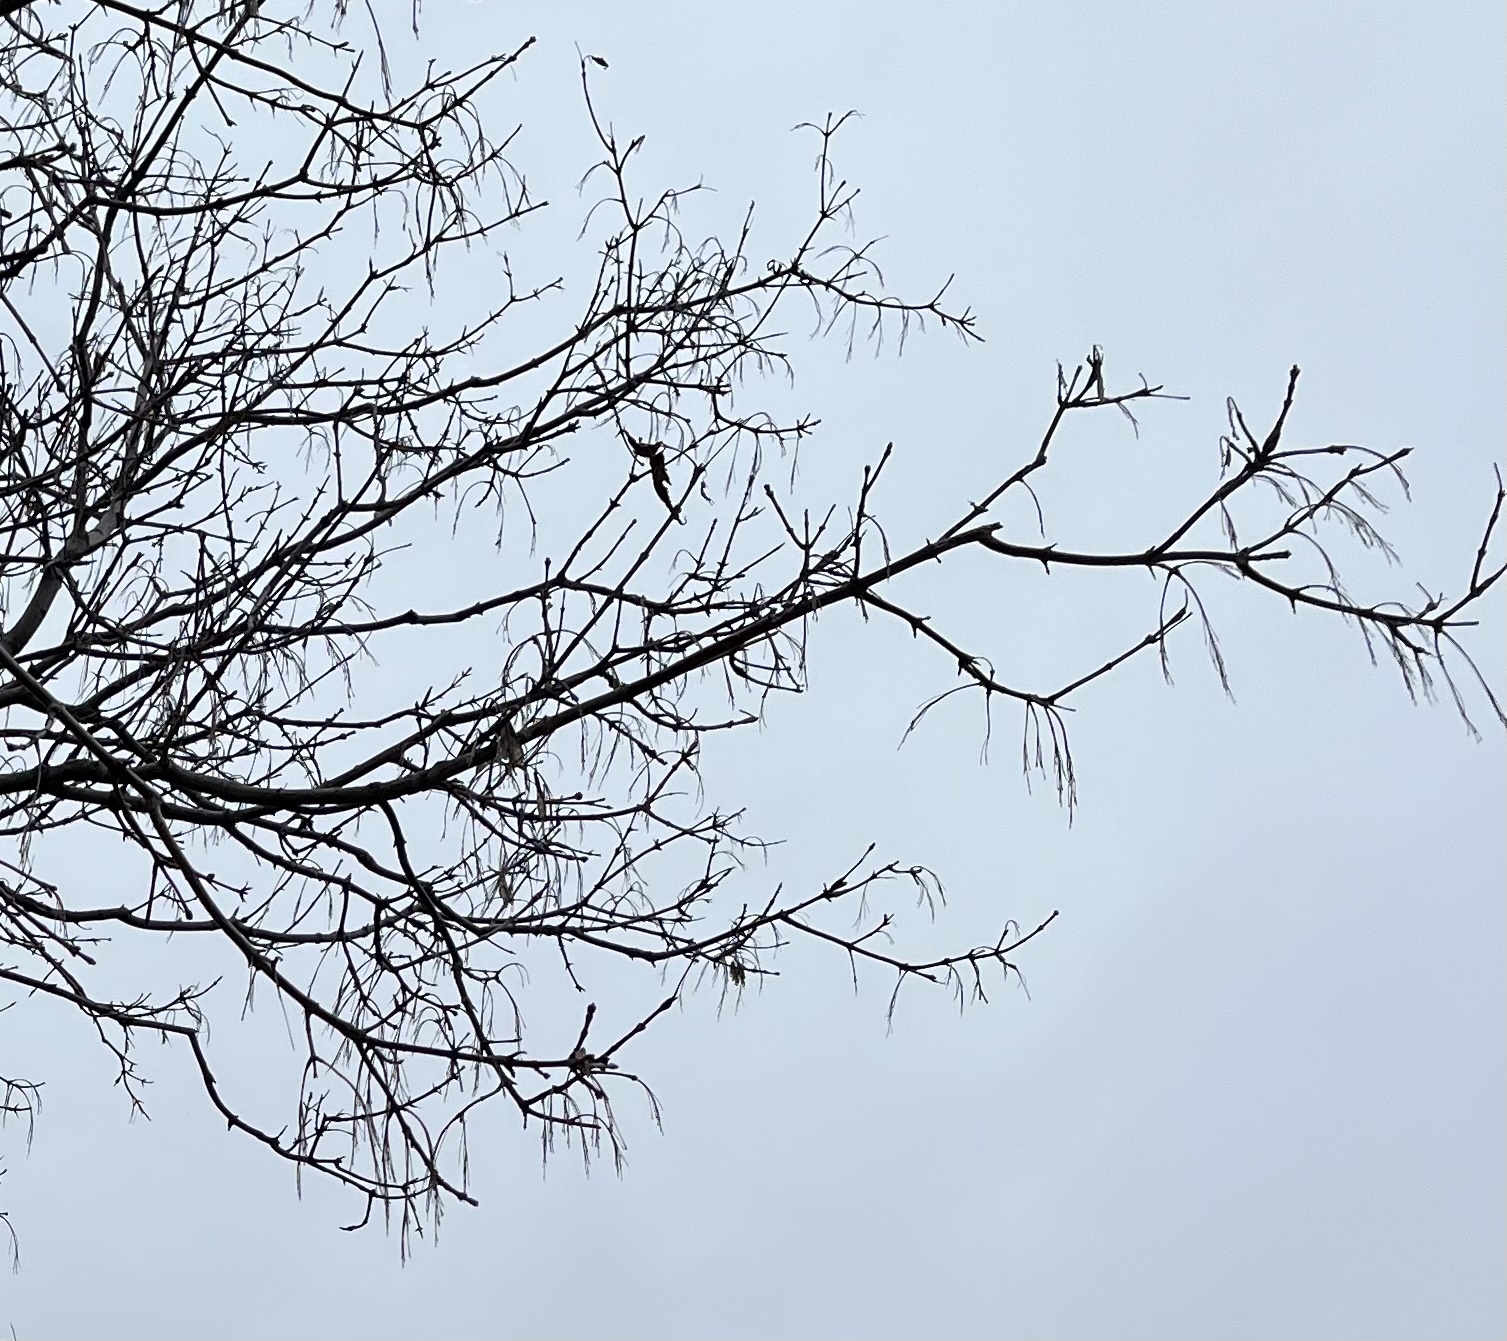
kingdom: Plantae
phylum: Tracheophyta
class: Magnoliopsida
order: Sapindales
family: Sapindaceae
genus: Acer
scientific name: Acer negundo
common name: Ashleaf maple
